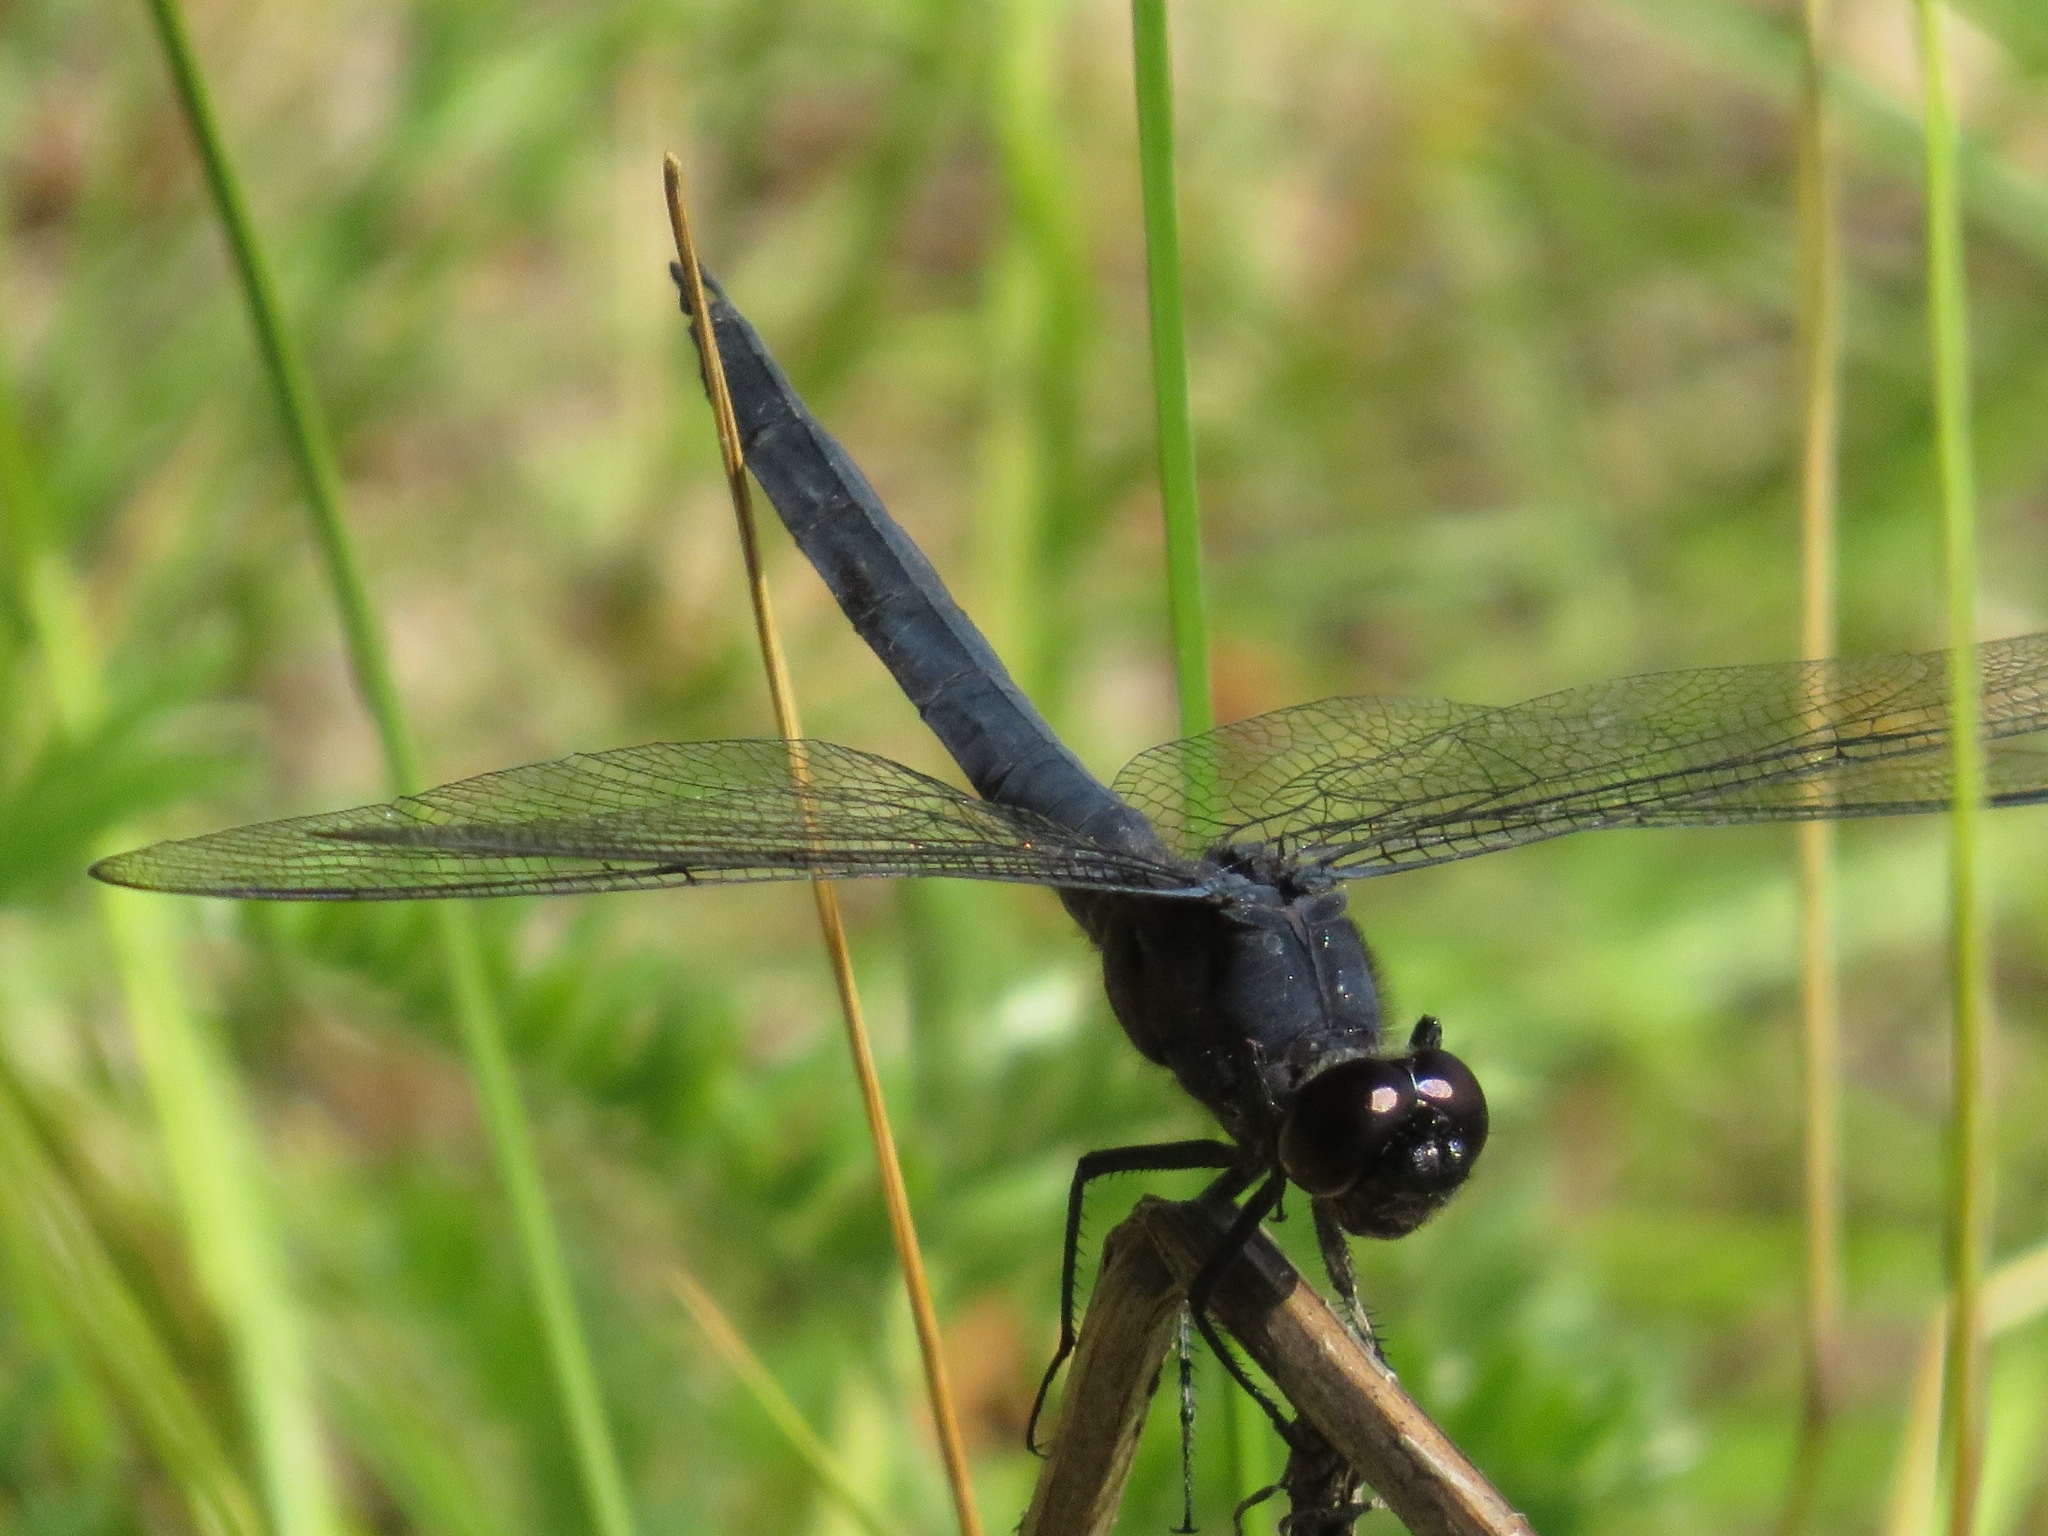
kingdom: Animalia
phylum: Arthropoda
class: Insecta
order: Odonata
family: Libellulidae
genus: Libellula
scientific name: Libellula incesta
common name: Slaty skimmer
